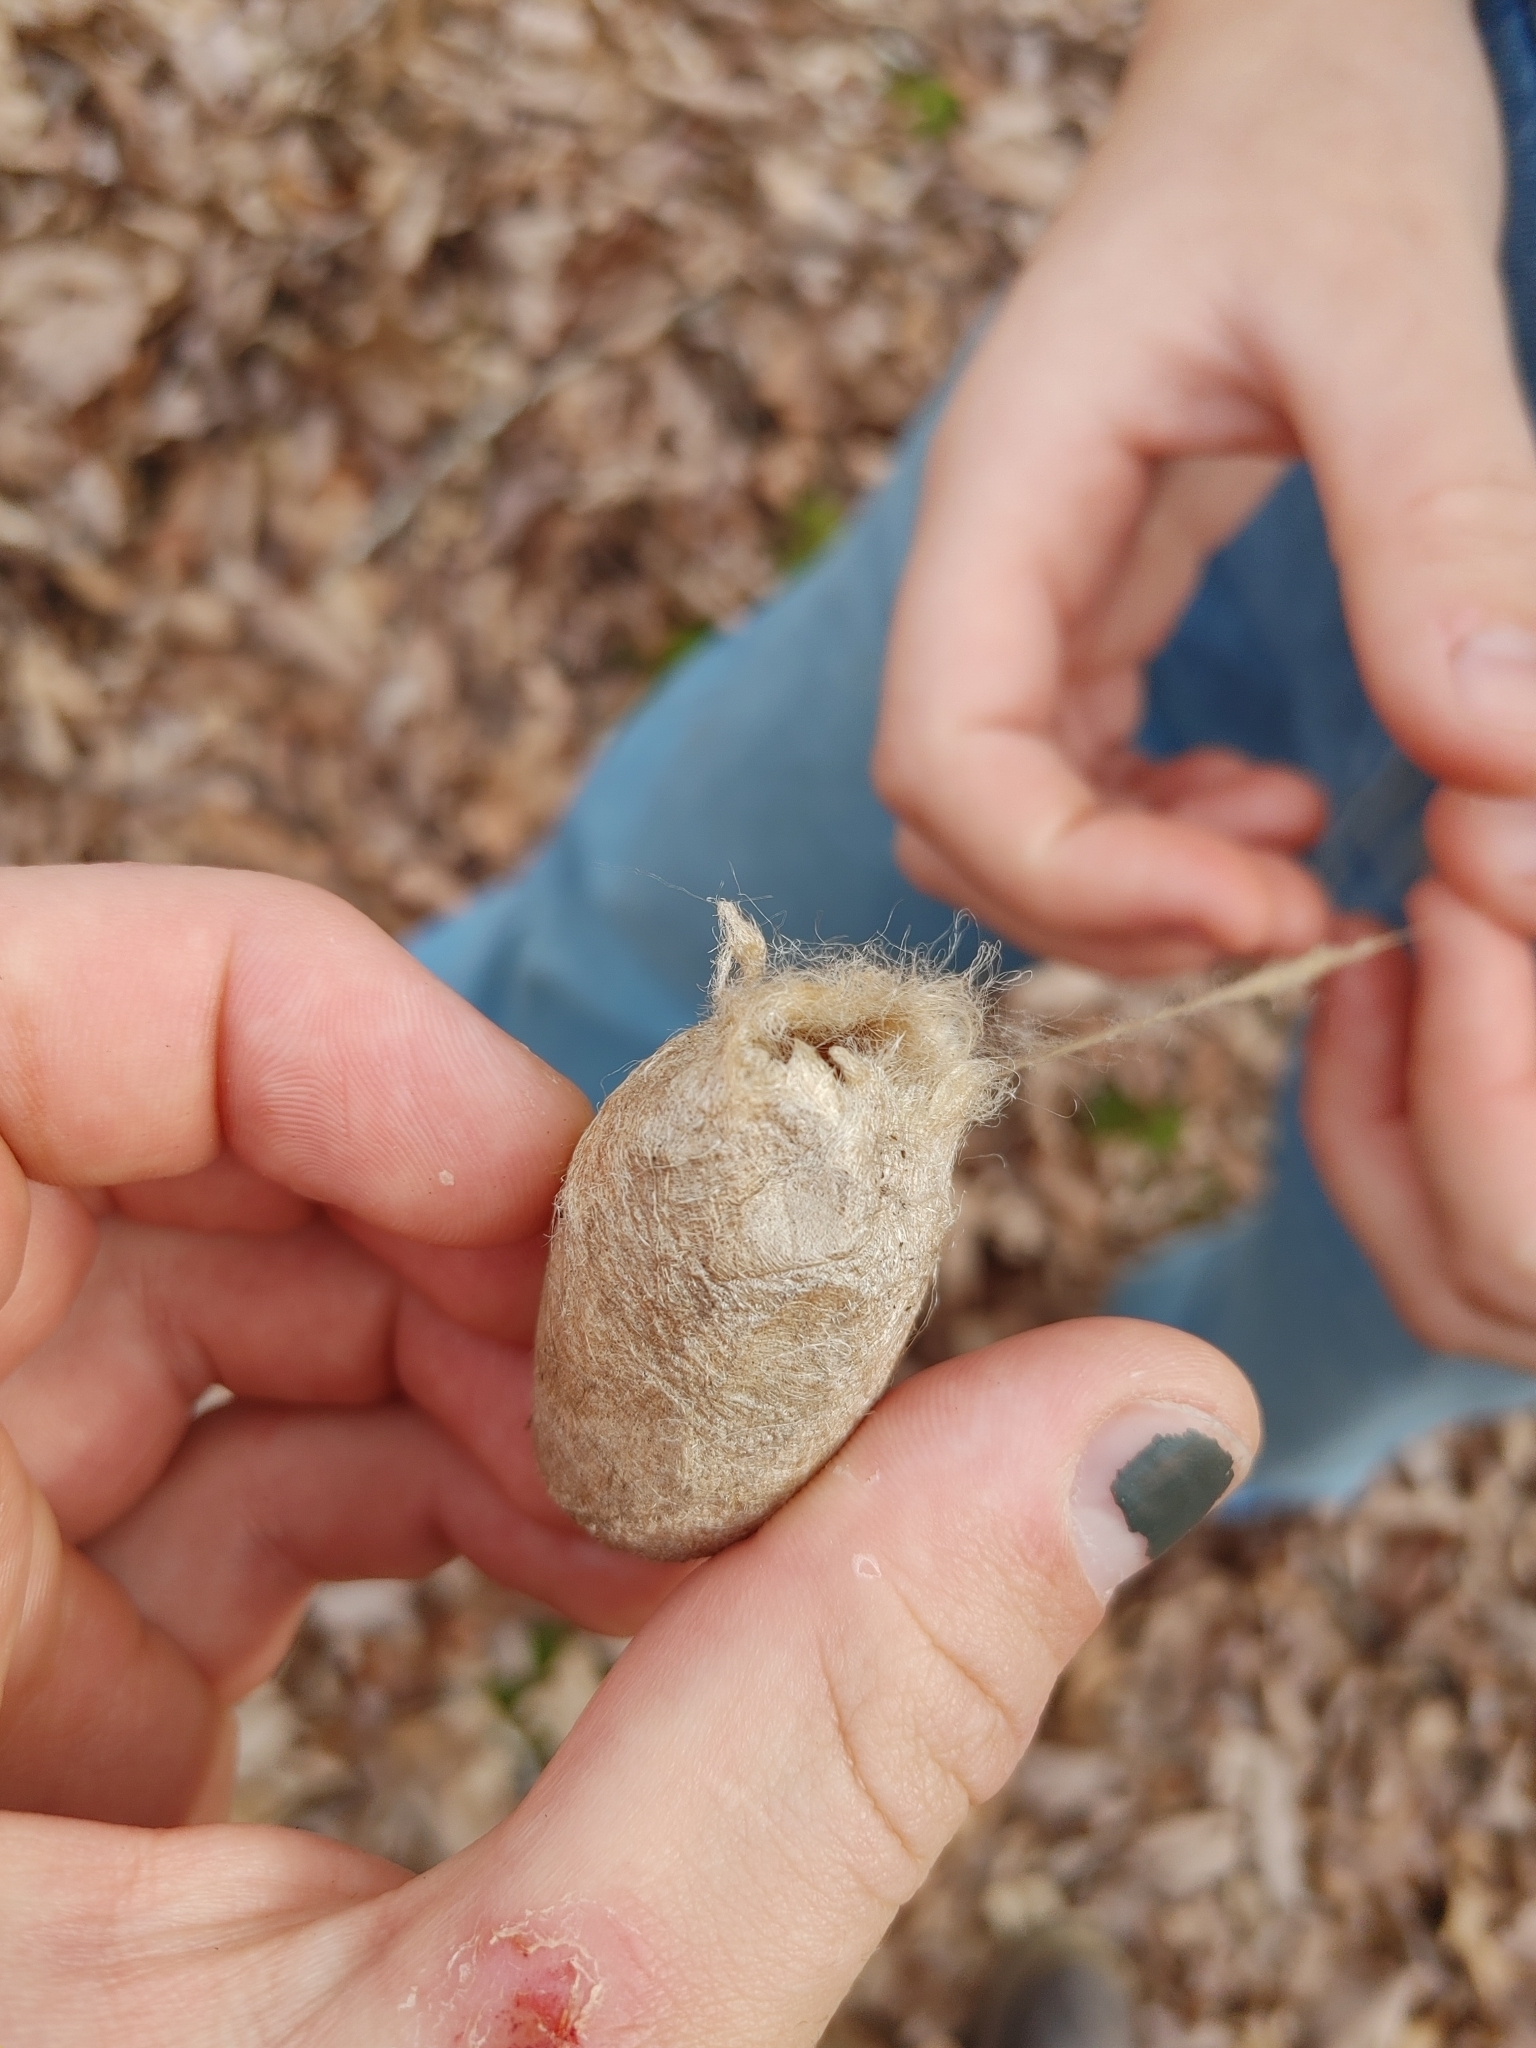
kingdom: Animalia
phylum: Arthropoda
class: Insecta
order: Lepidoptera
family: Saturniidae
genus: Antheraea
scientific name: Antheraea polyphemus
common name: Polyphemus moth
